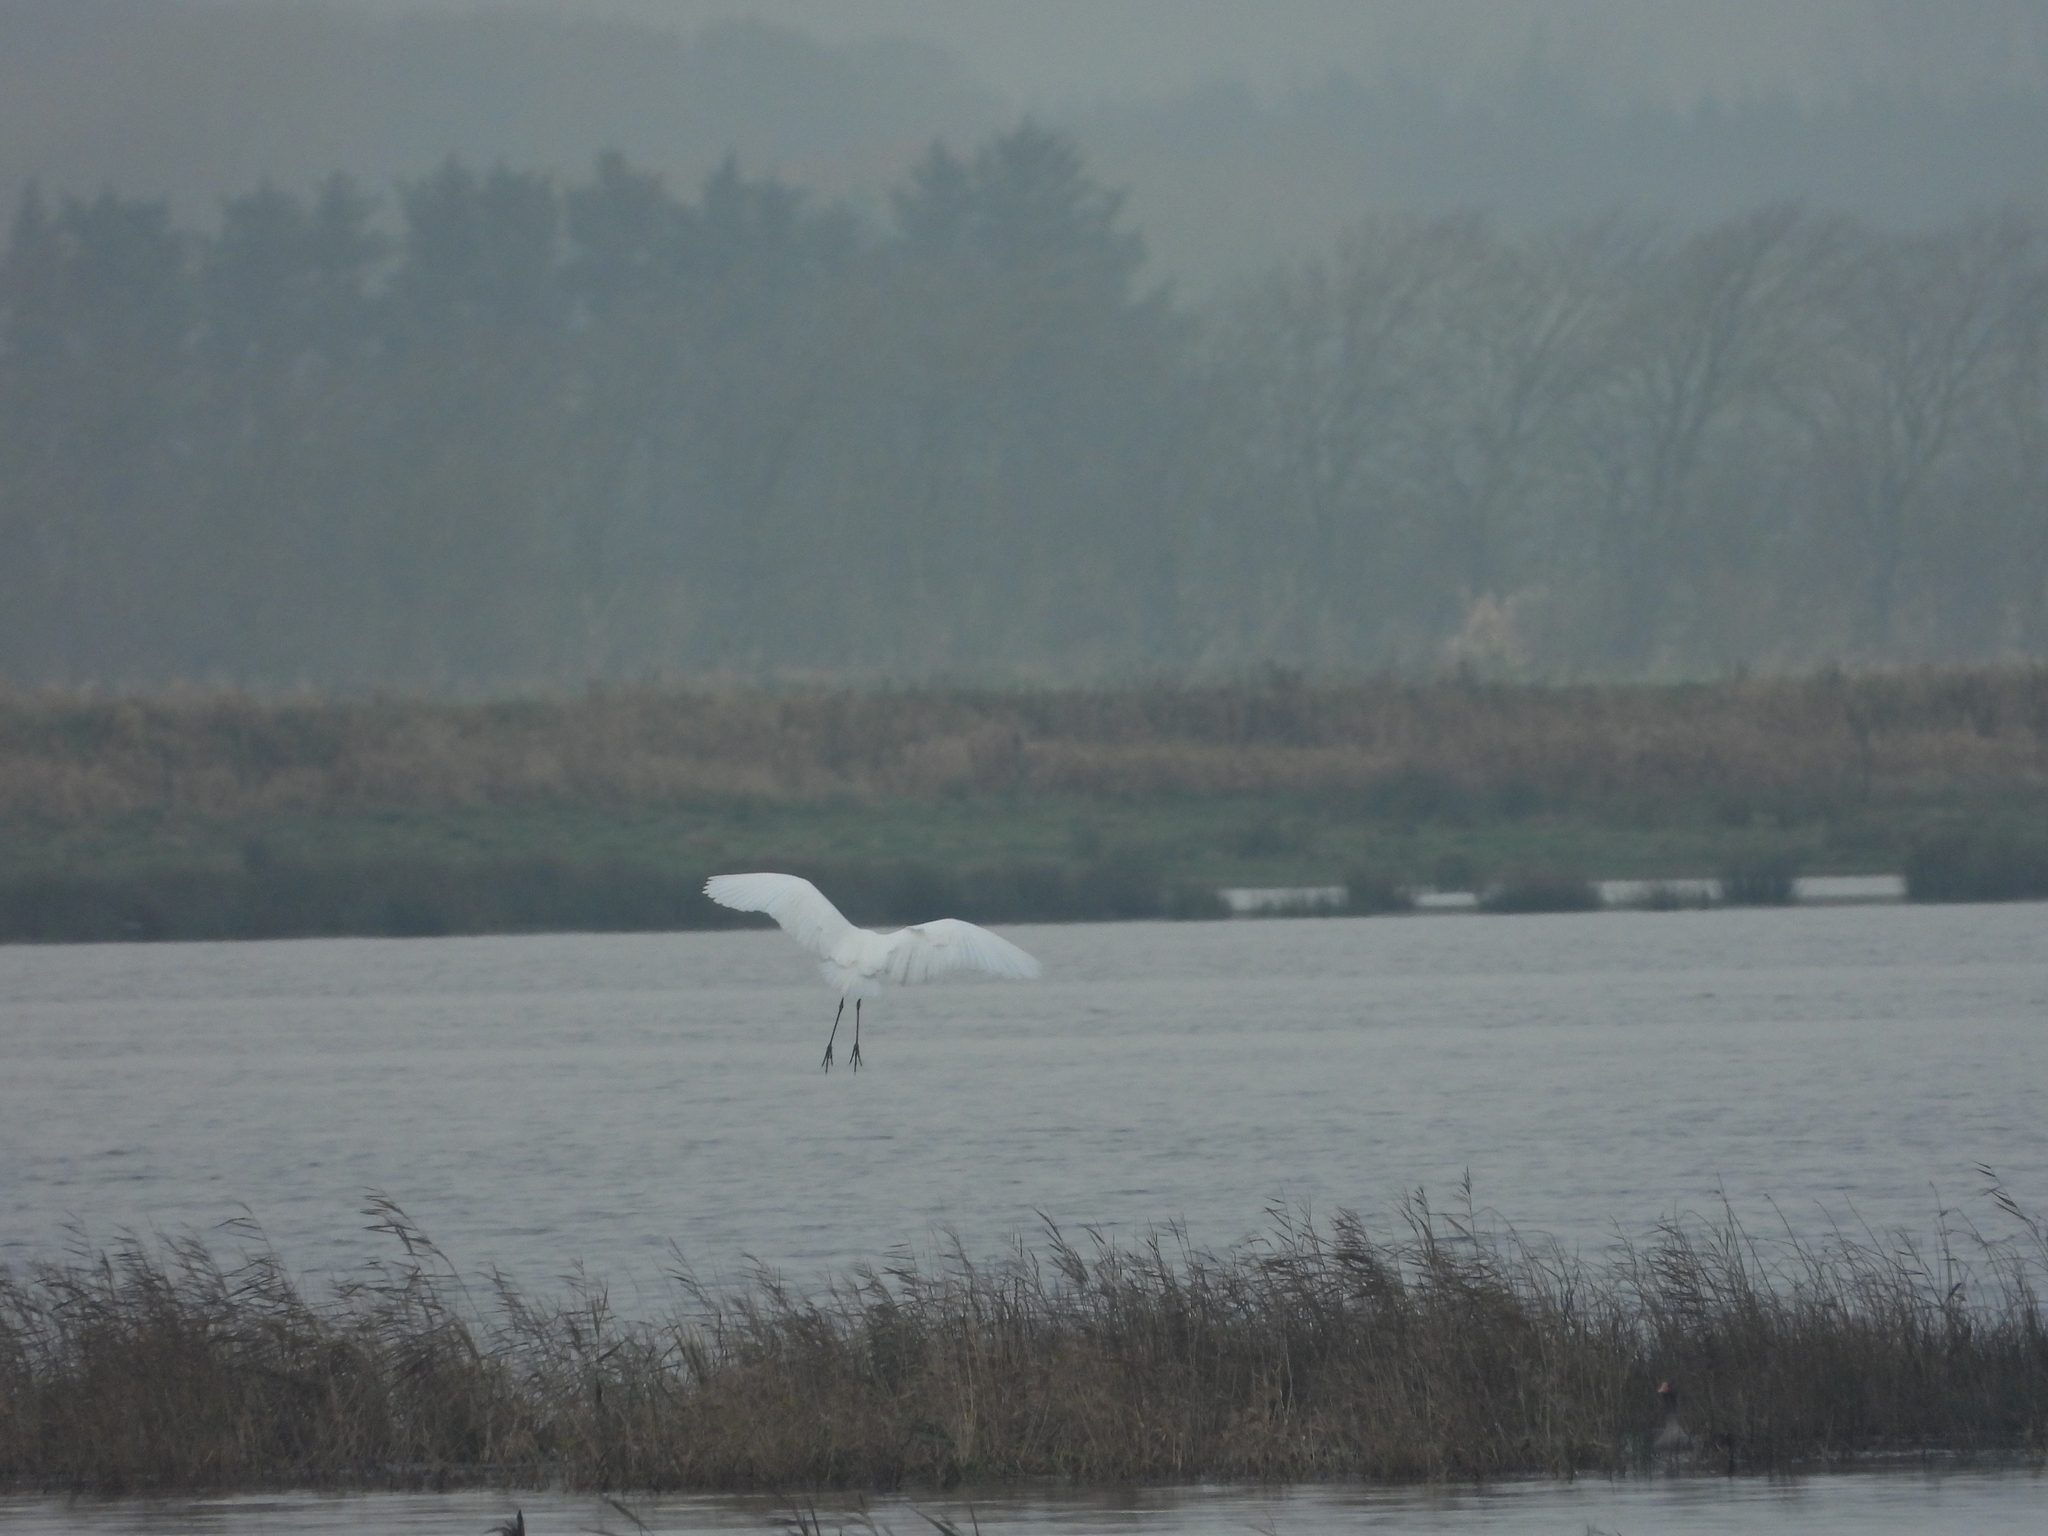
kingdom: Animalia
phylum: Chordata
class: Aves
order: Pelecaniformes
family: Ardeidae
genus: Ardea
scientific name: Ardea alba
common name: Great egret
